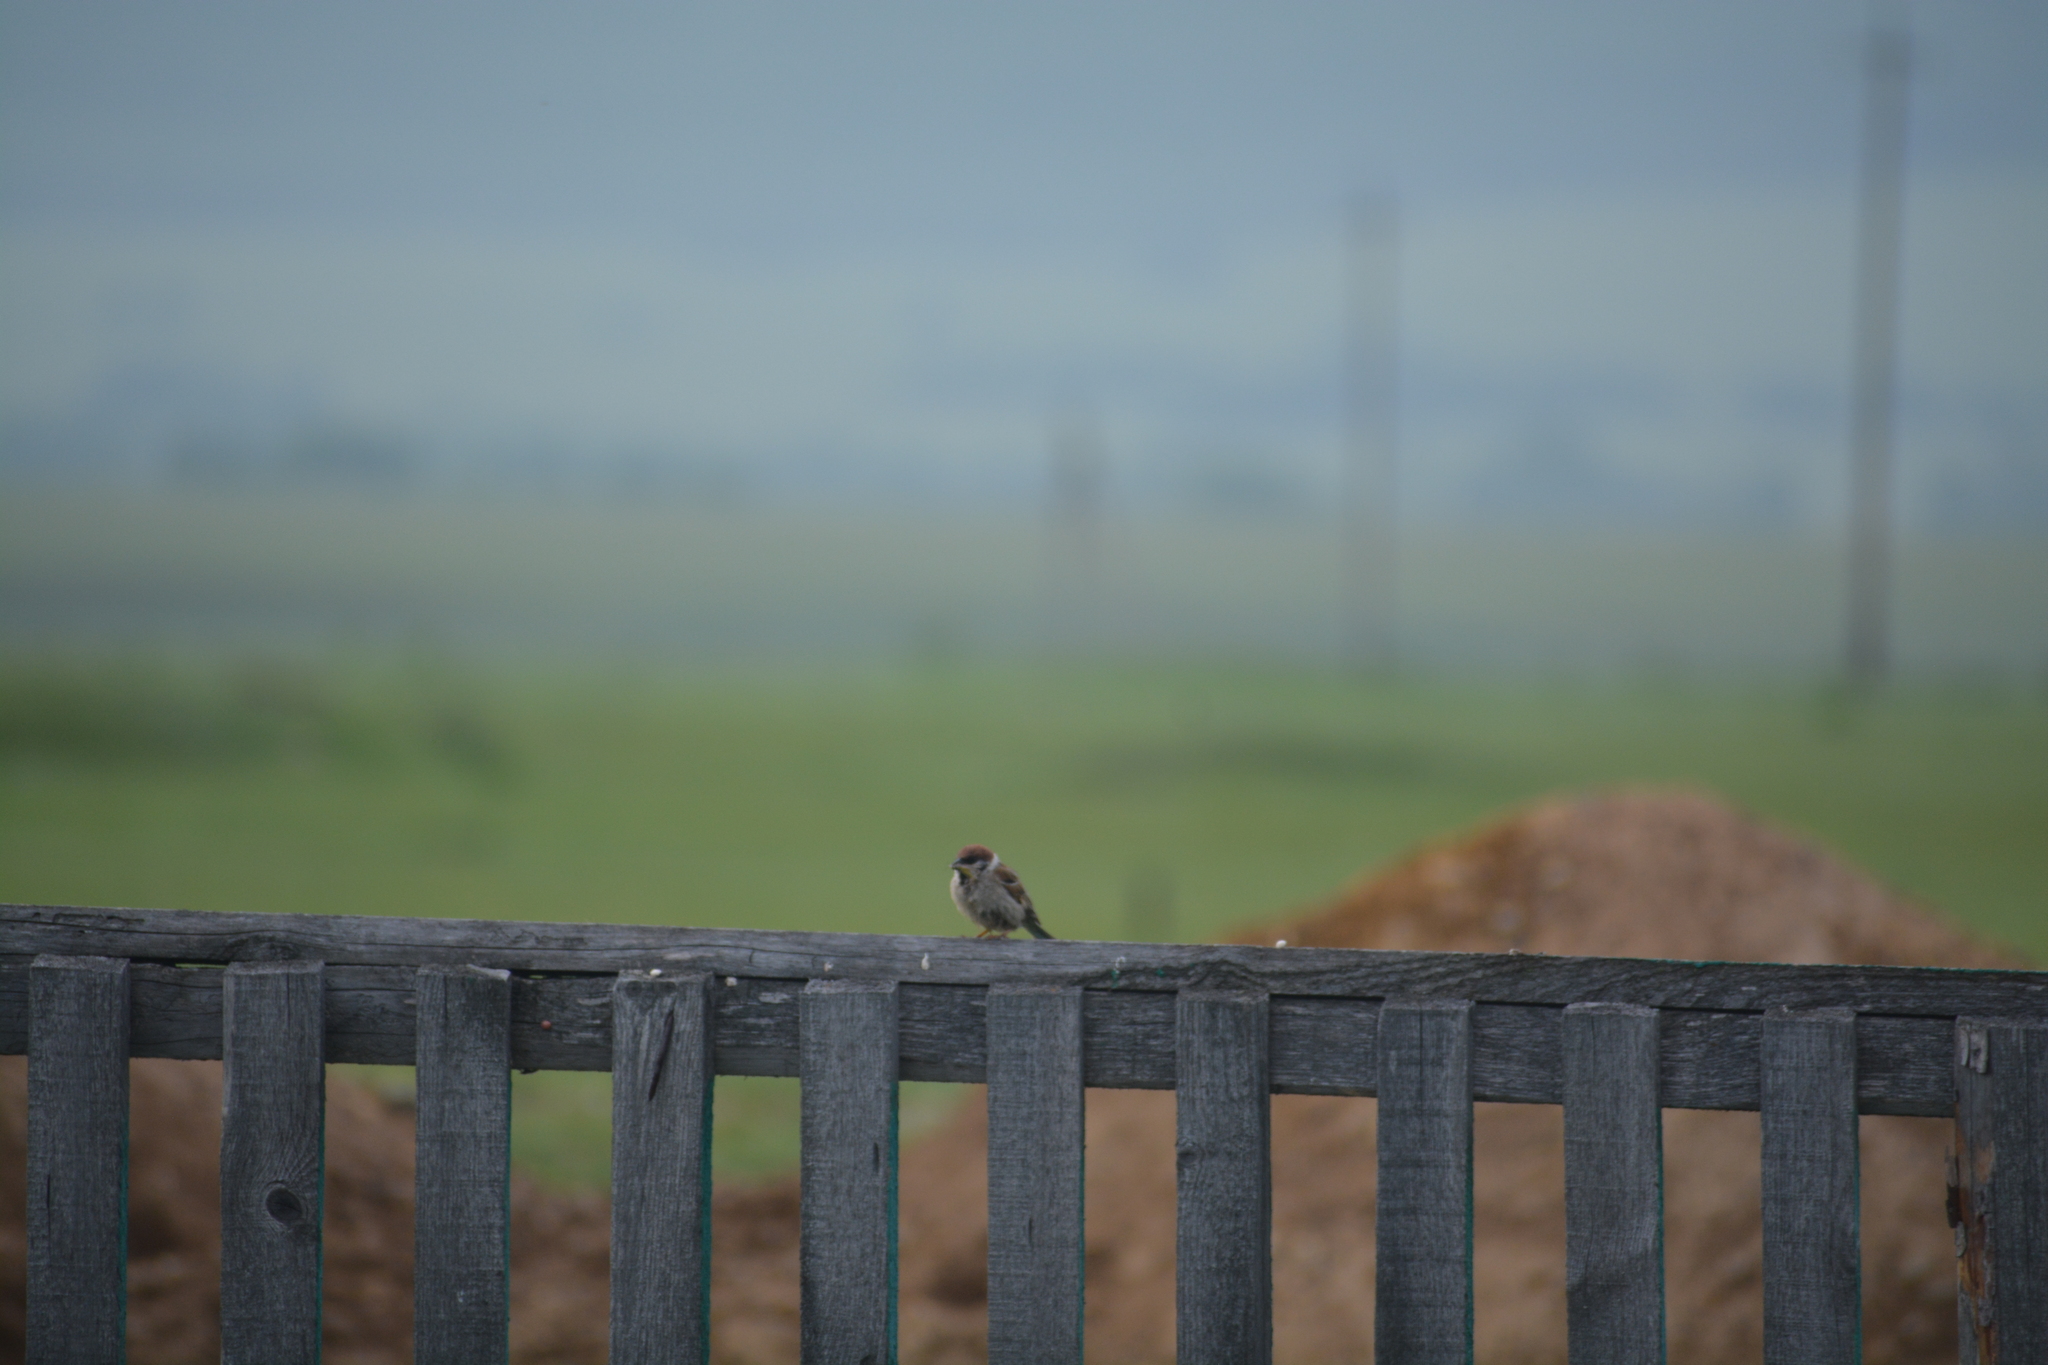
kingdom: Animalia
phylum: Chordata
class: Aves
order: Passeriformes
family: Passeridae
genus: Passer
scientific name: Passer montanus
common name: Eurasian tree sparrow
